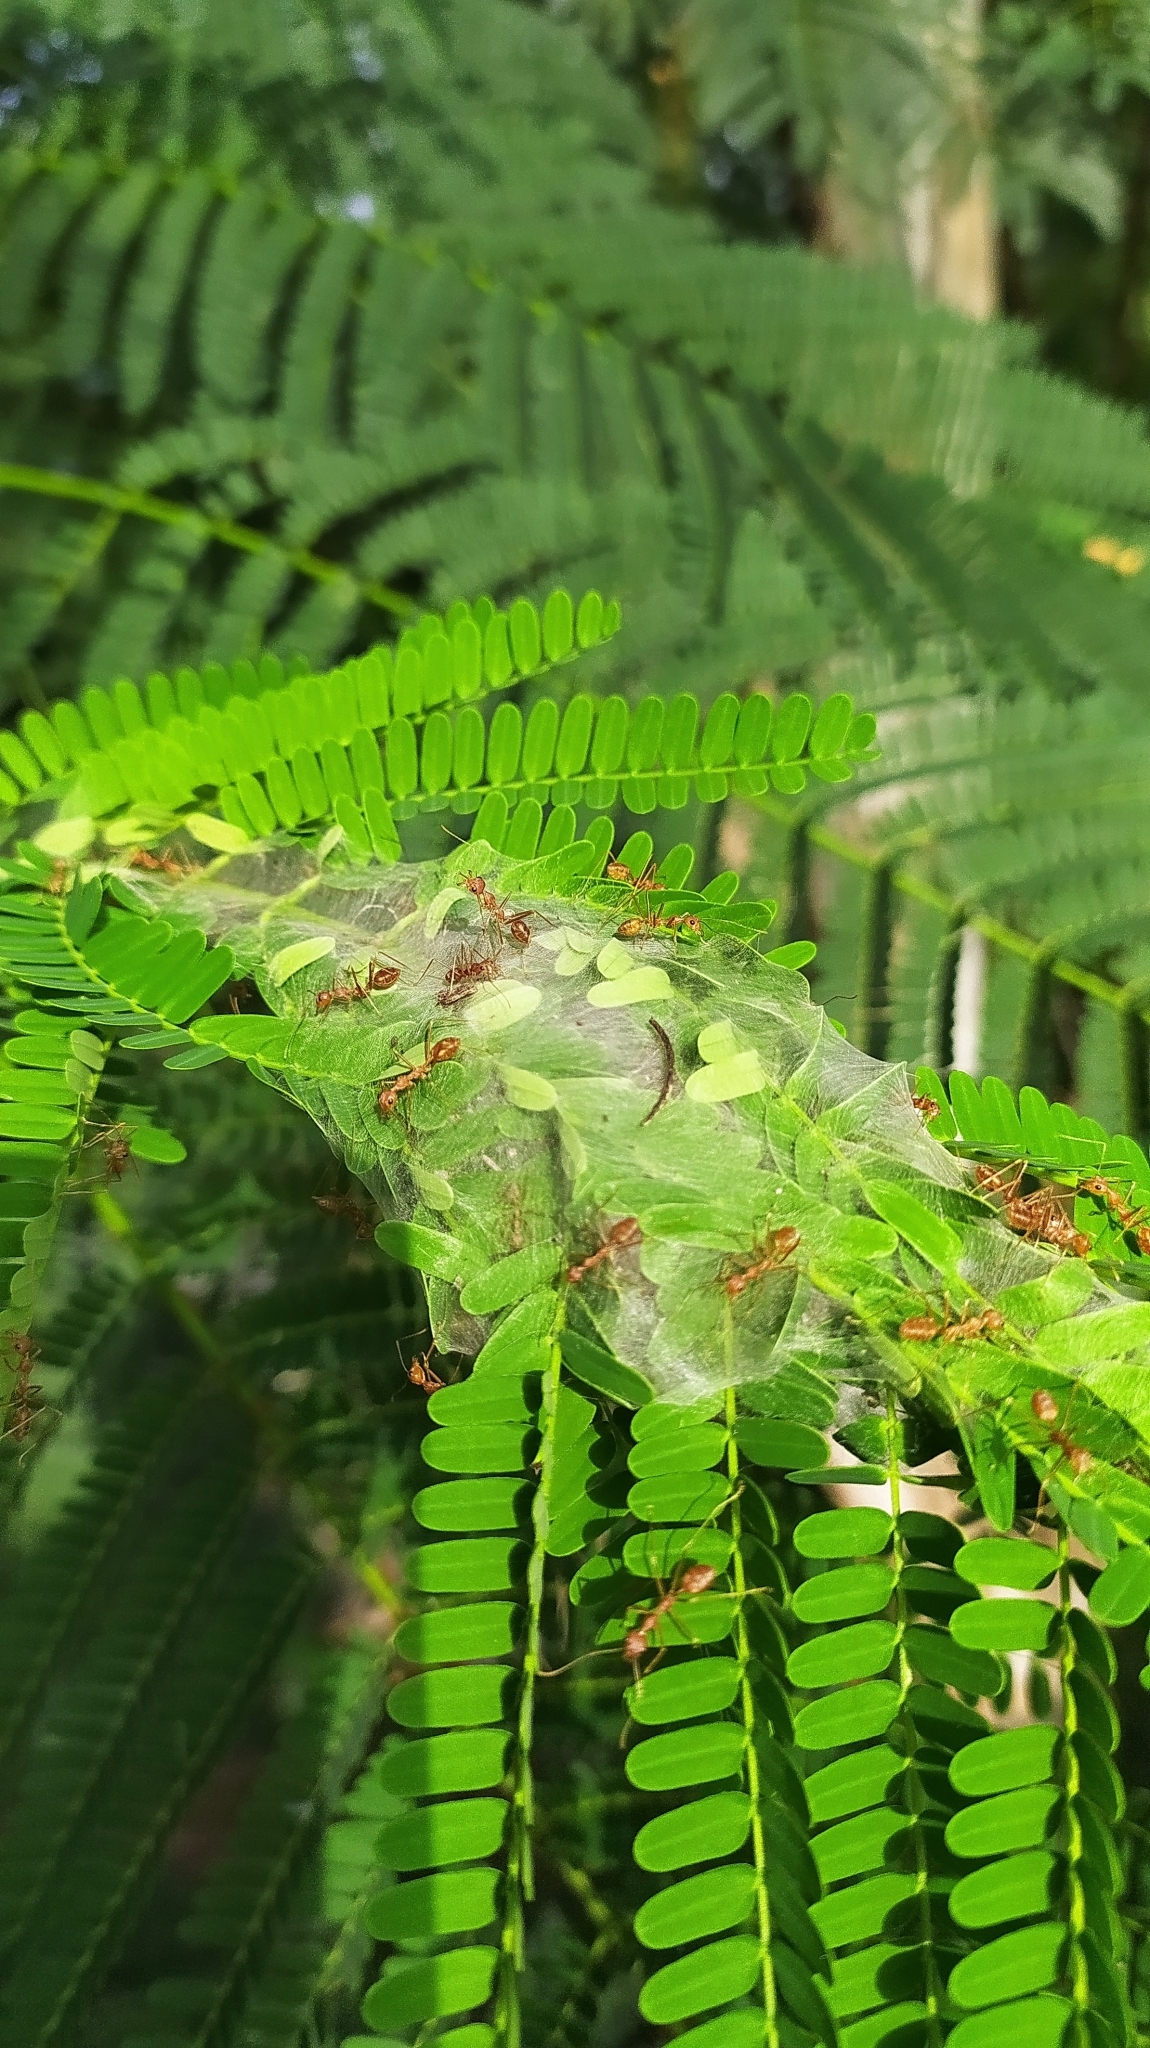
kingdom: Animalia
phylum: Arthropoda
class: Insecta
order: Hymenoptera
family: Formicidae
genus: Oecophylla
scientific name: Oecophylla smaragdina
